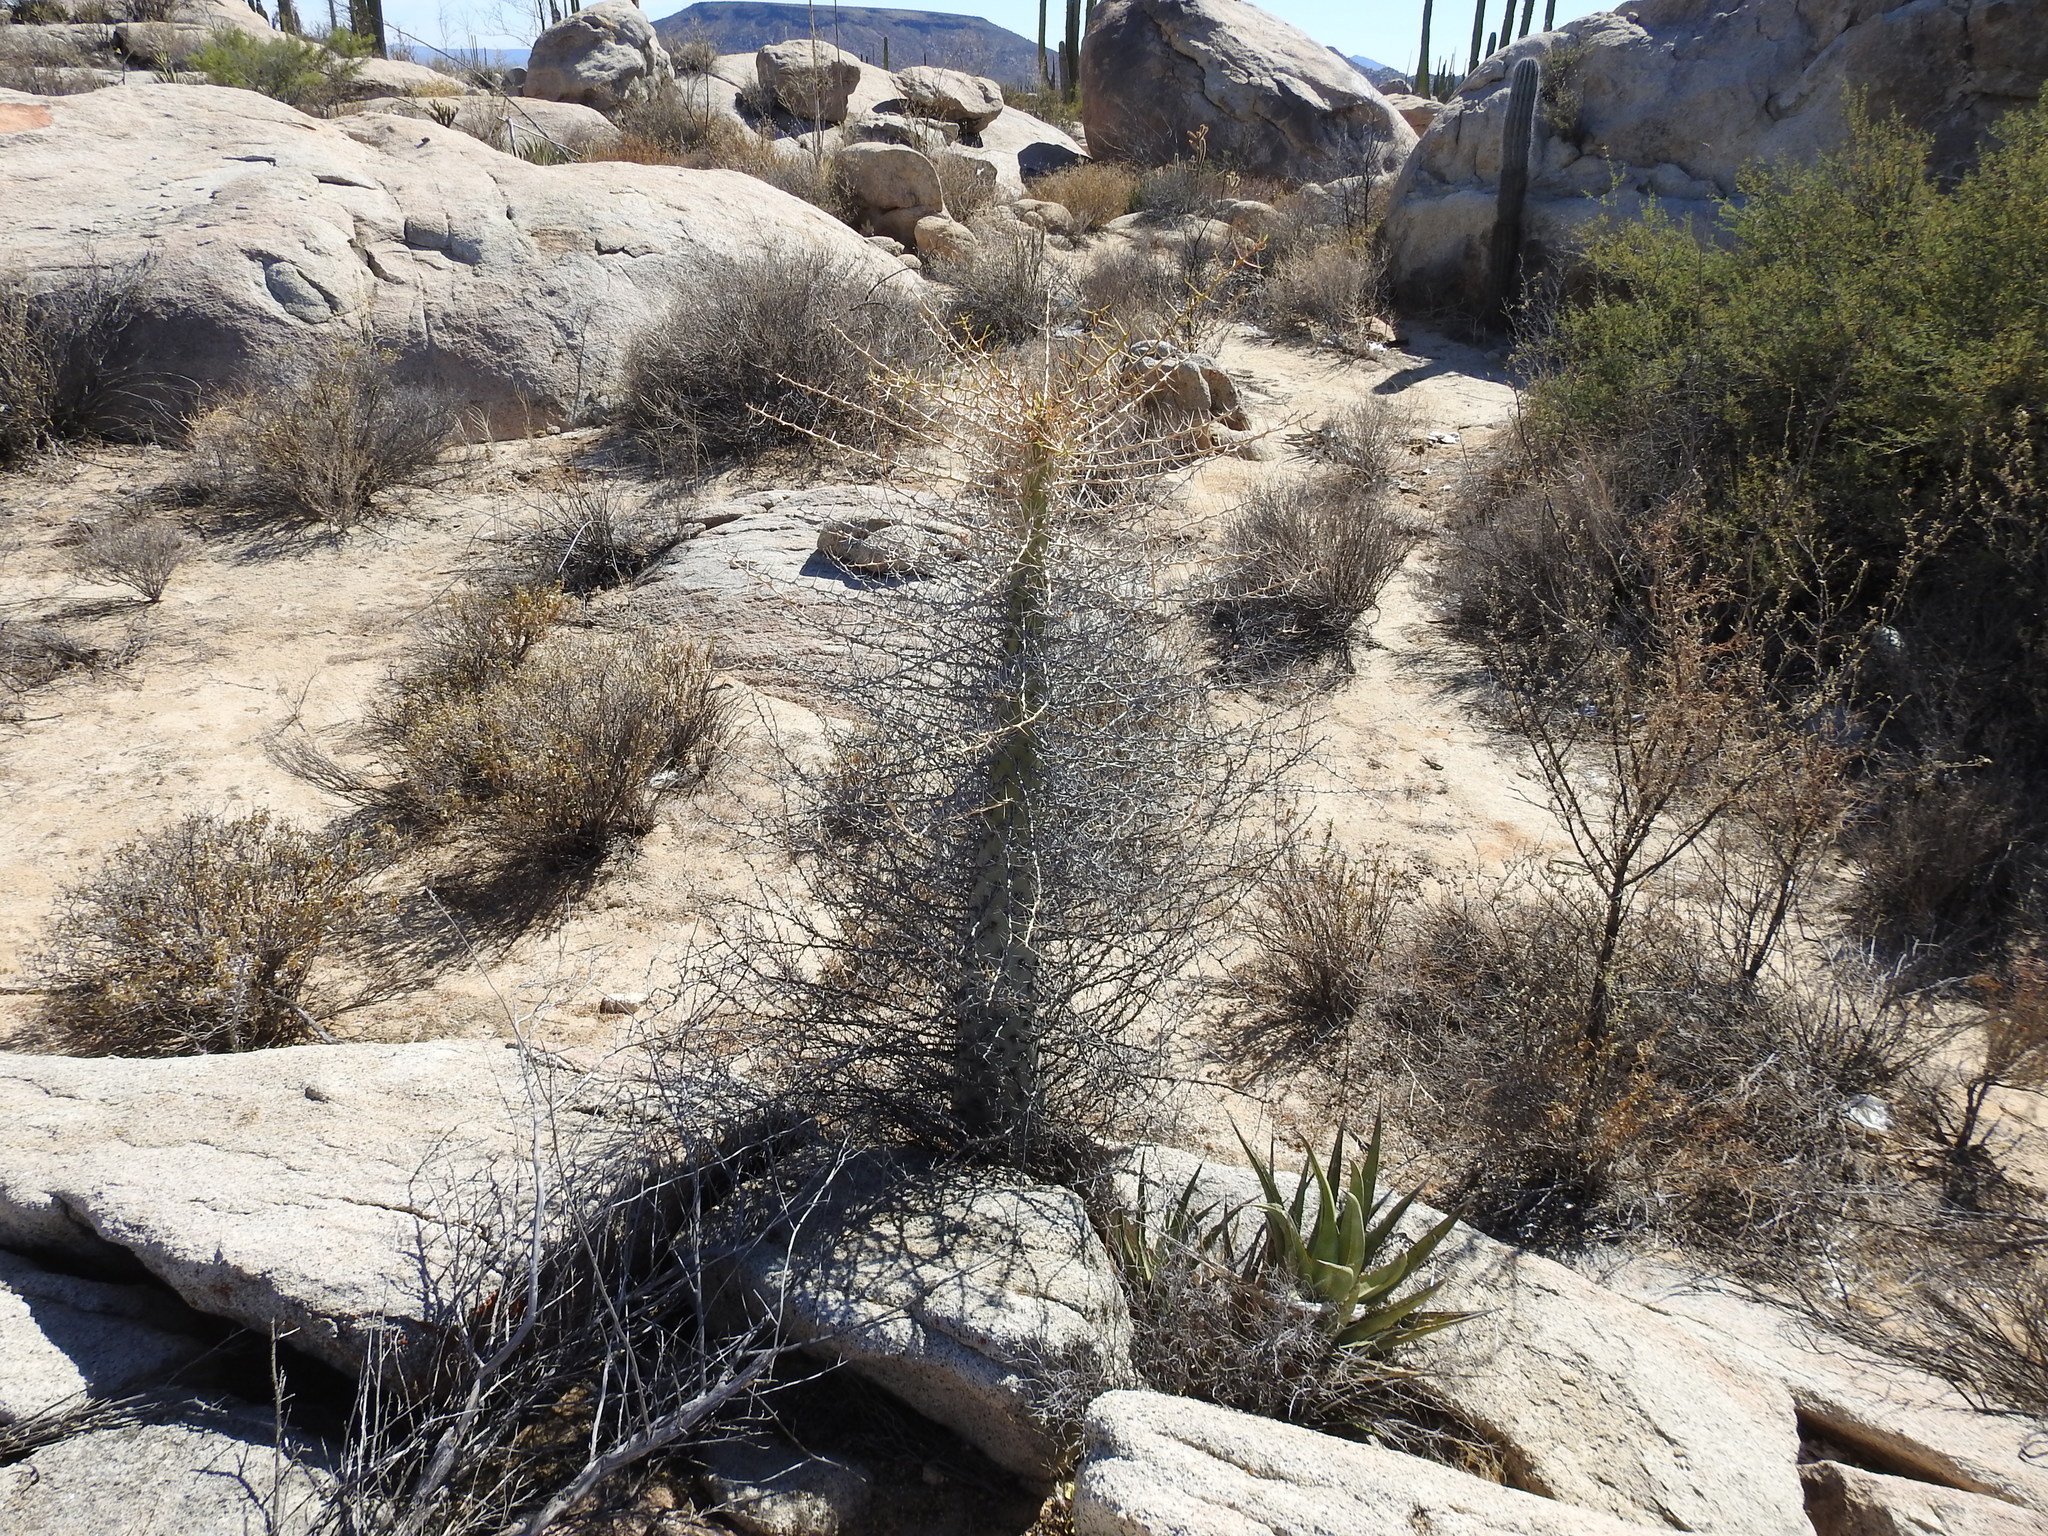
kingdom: Plantae
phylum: Tracheophyta
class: Magnoliopsida
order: Ericales
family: Fouquieriaceae
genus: Fouquieria
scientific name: Fouquieria columnaris
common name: Boojumtree
